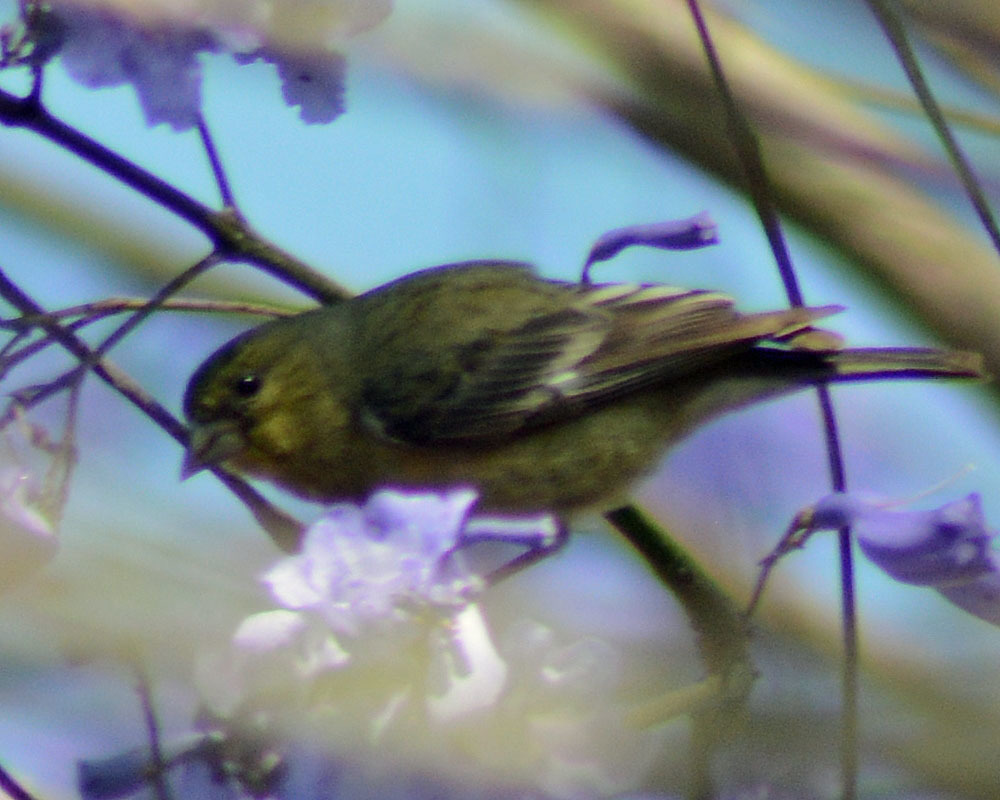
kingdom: Animalia
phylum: Chordata
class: Aves
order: Passeriformes
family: Fringillidae
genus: Spinus
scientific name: Spinus psaltria
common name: Lesser goldfinch
